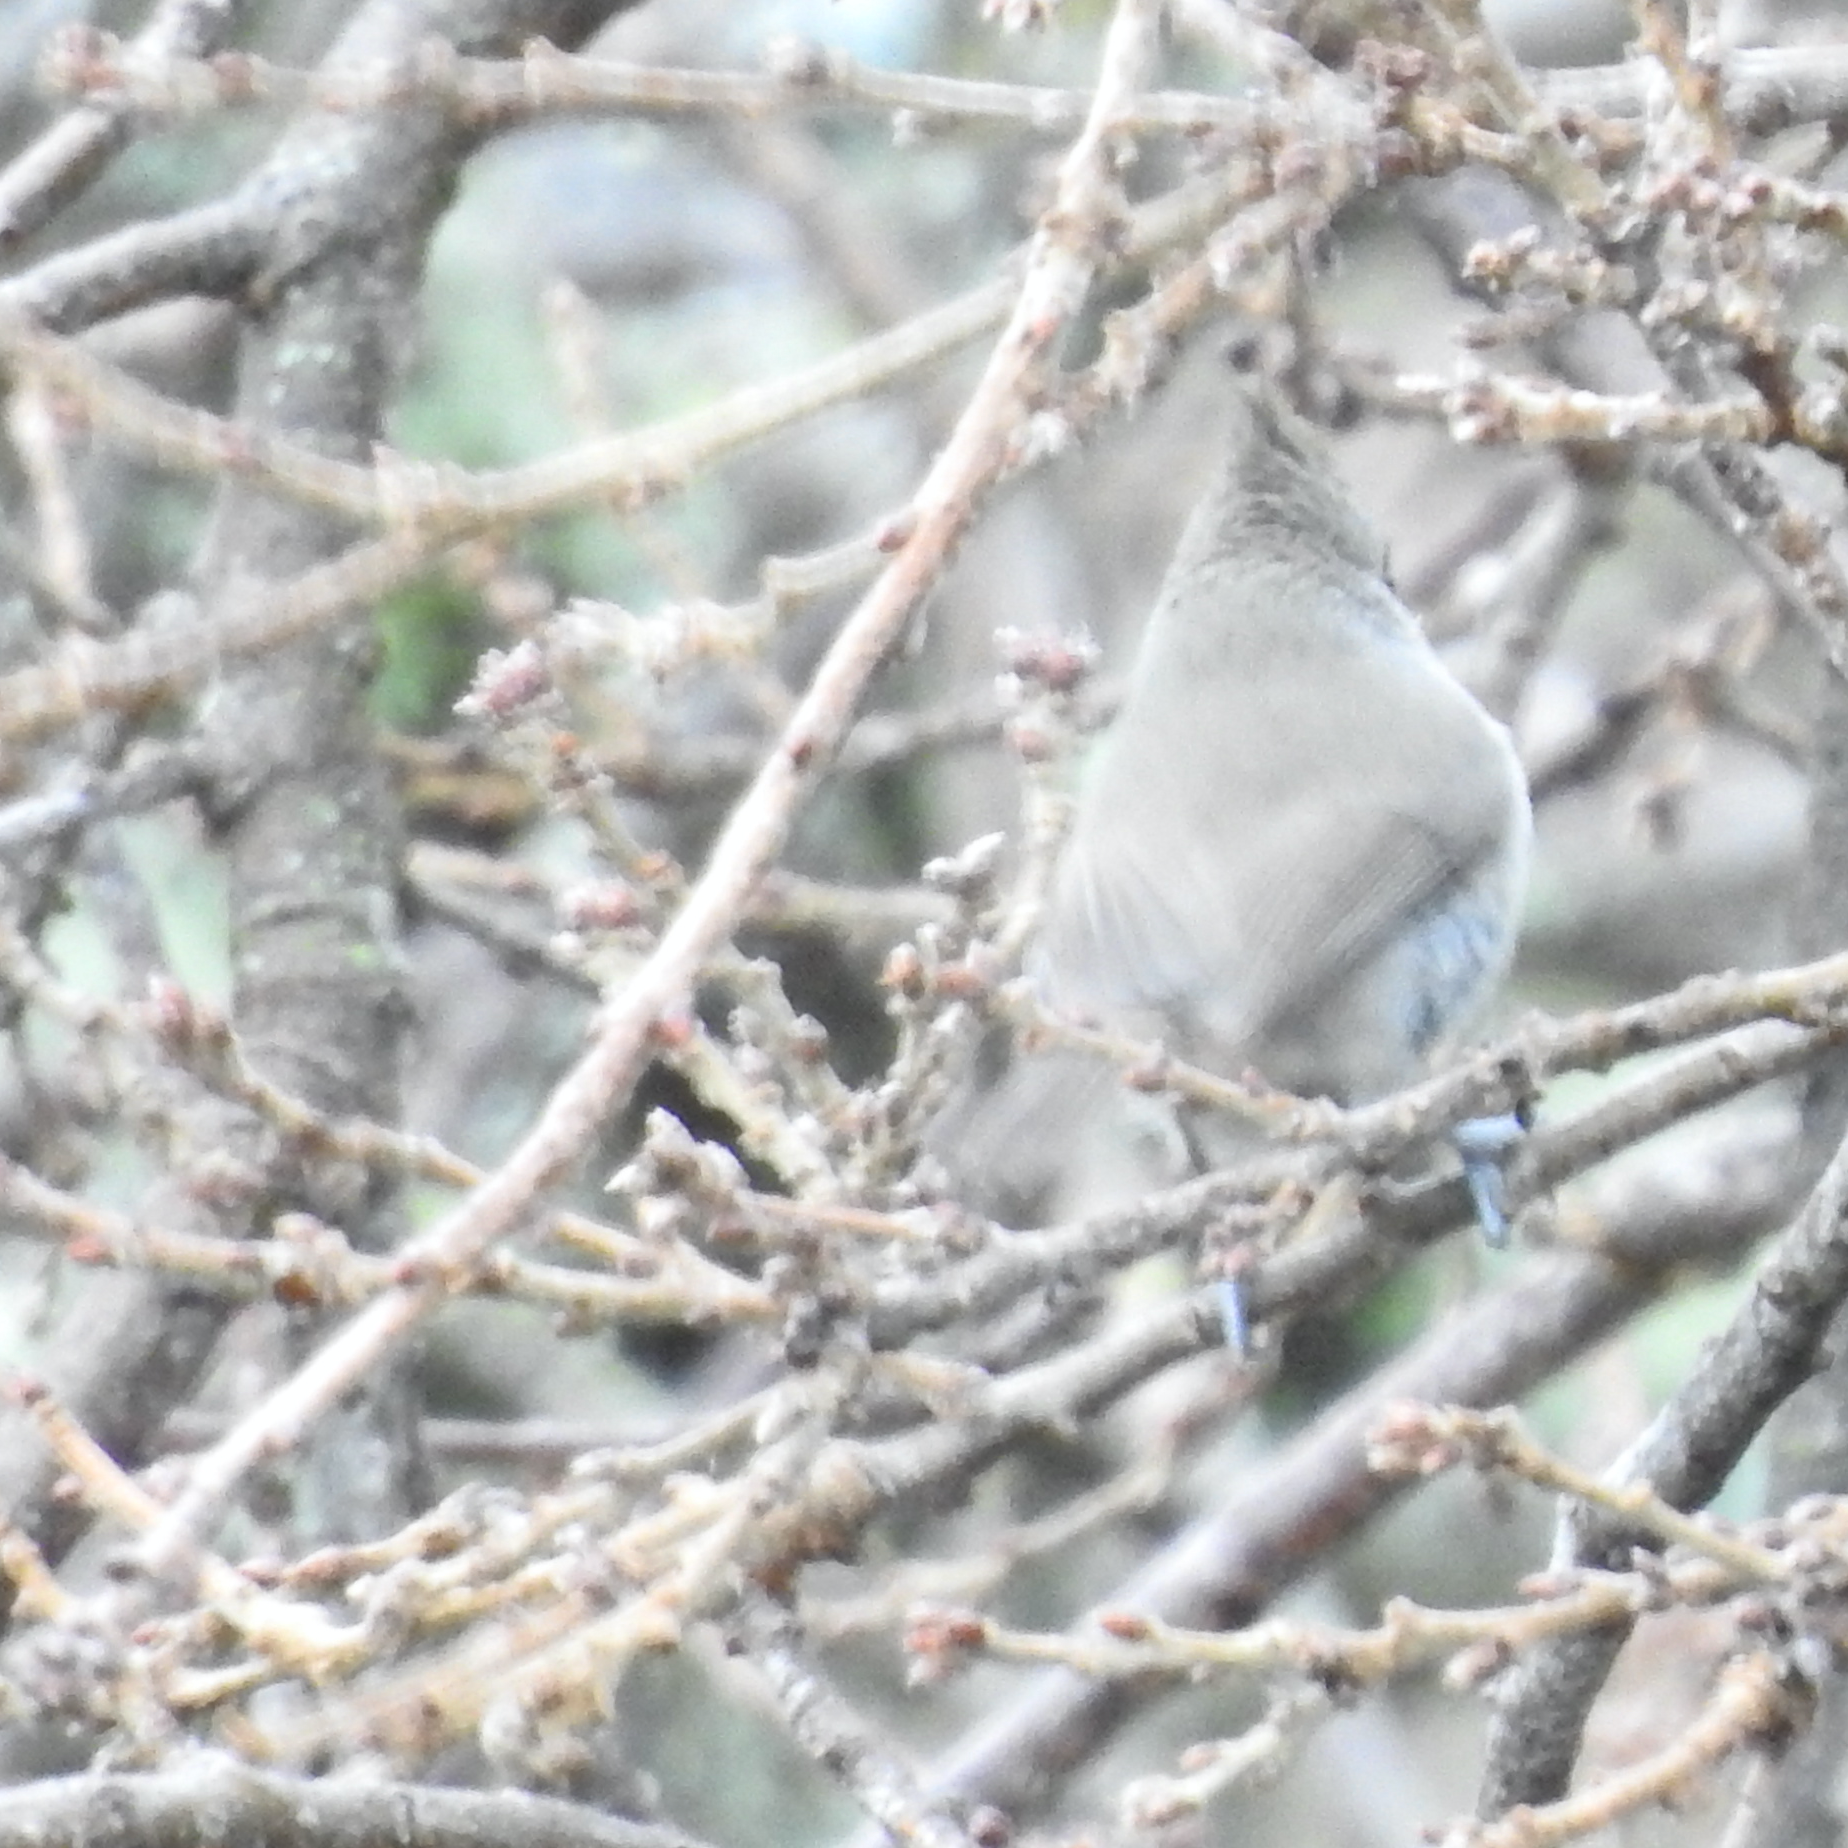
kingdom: Animalia
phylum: Chordata
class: Aves
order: Passeriformes
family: Paridae
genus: Baeolophus
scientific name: Baeolophus inornatus
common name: Oak titmouse
